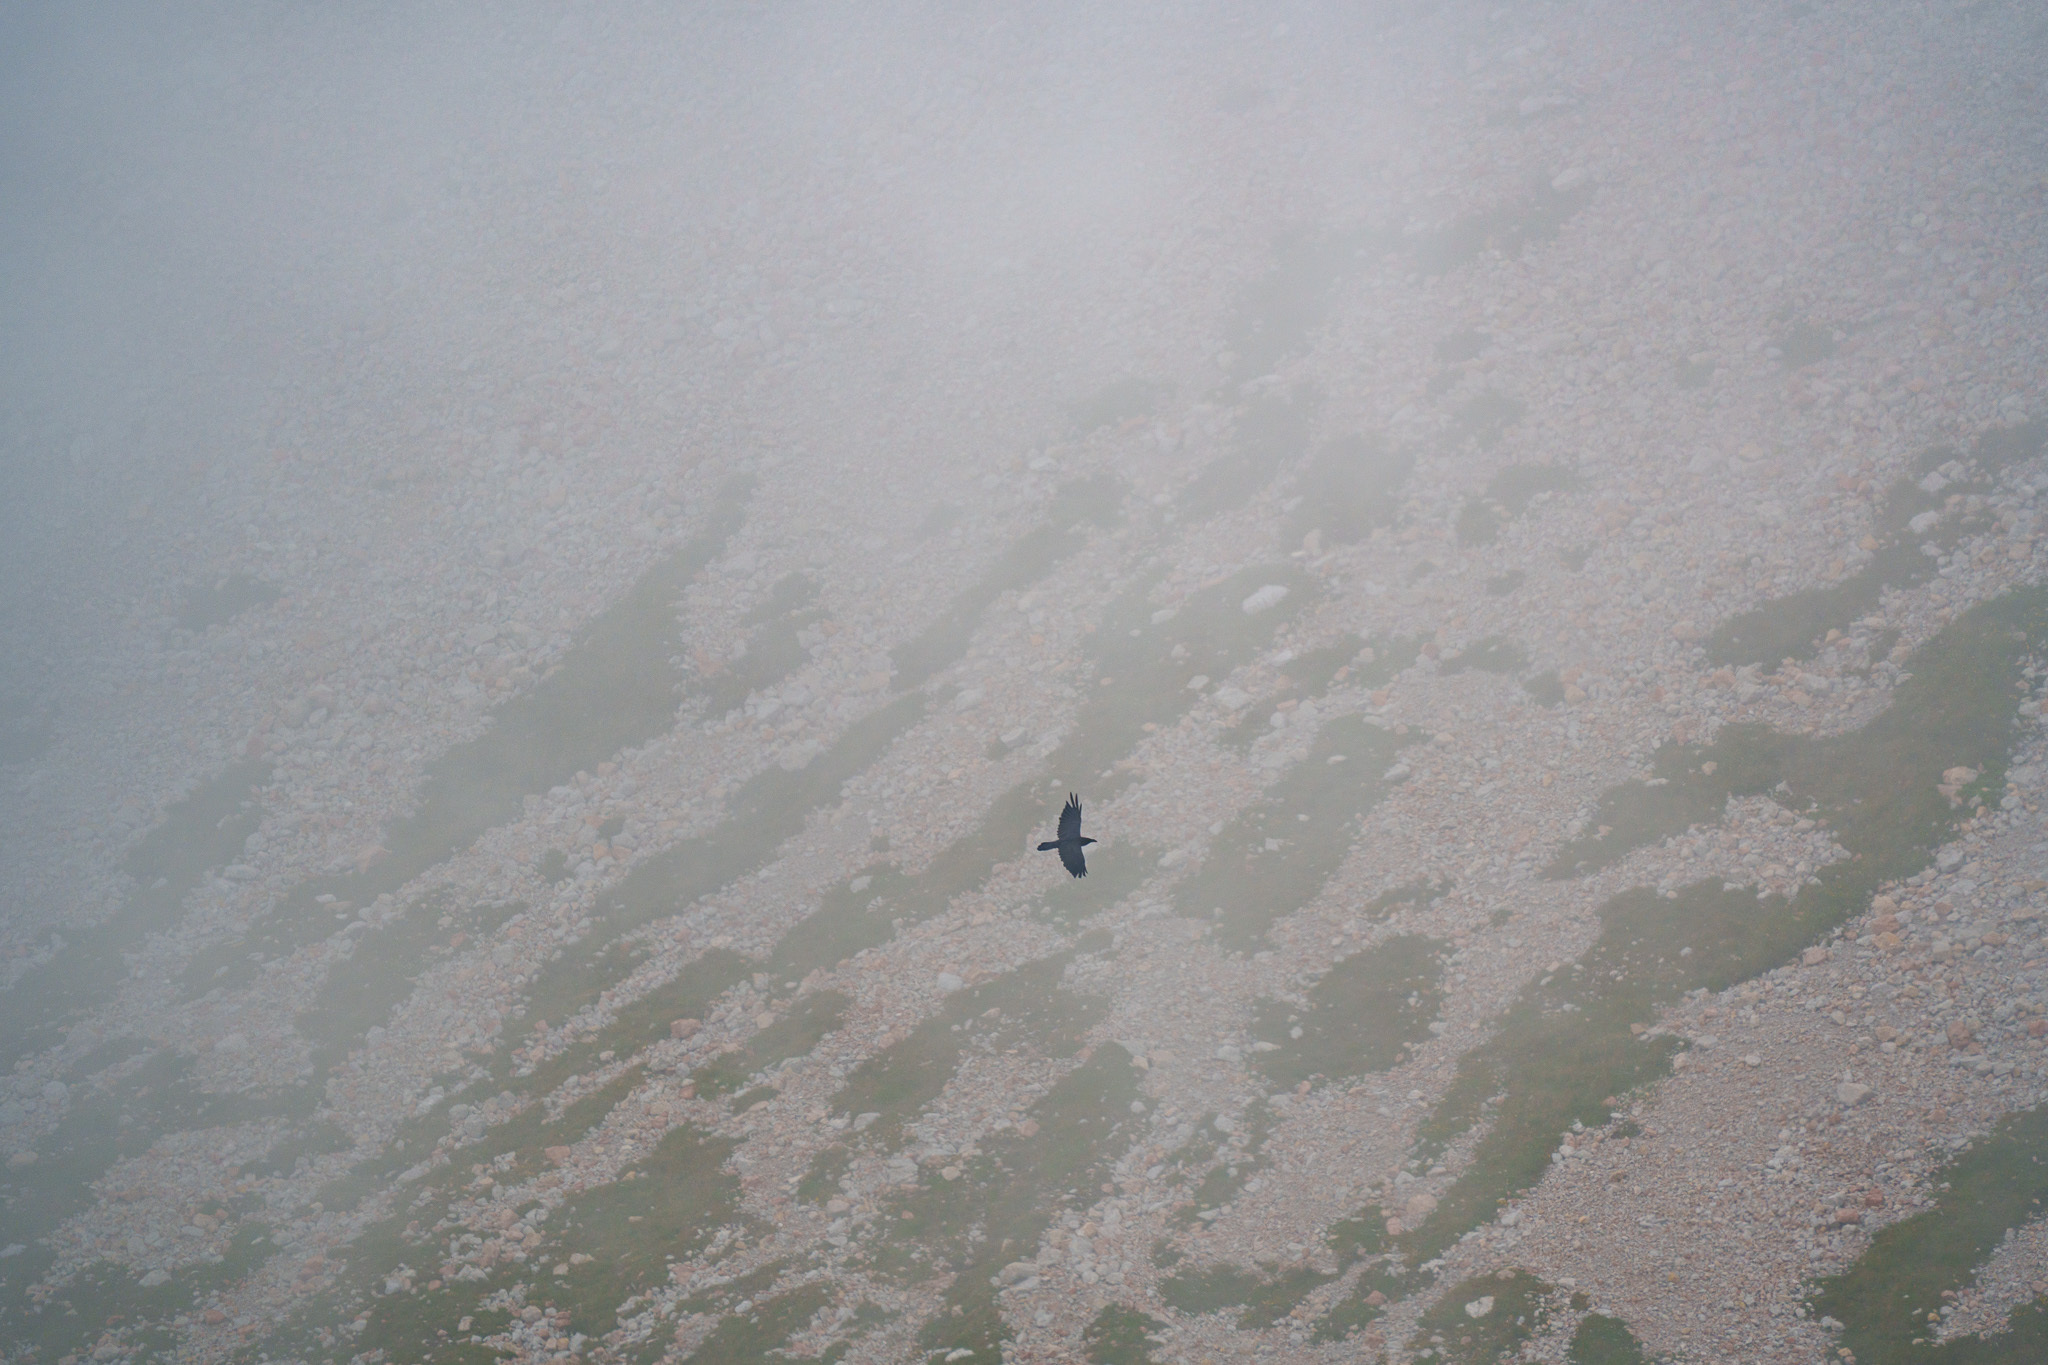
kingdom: Animalia
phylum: Chordata
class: Aves
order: Passeriformes
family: Corvidae
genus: Corvus
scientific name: Corvus corax
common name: Common raven
